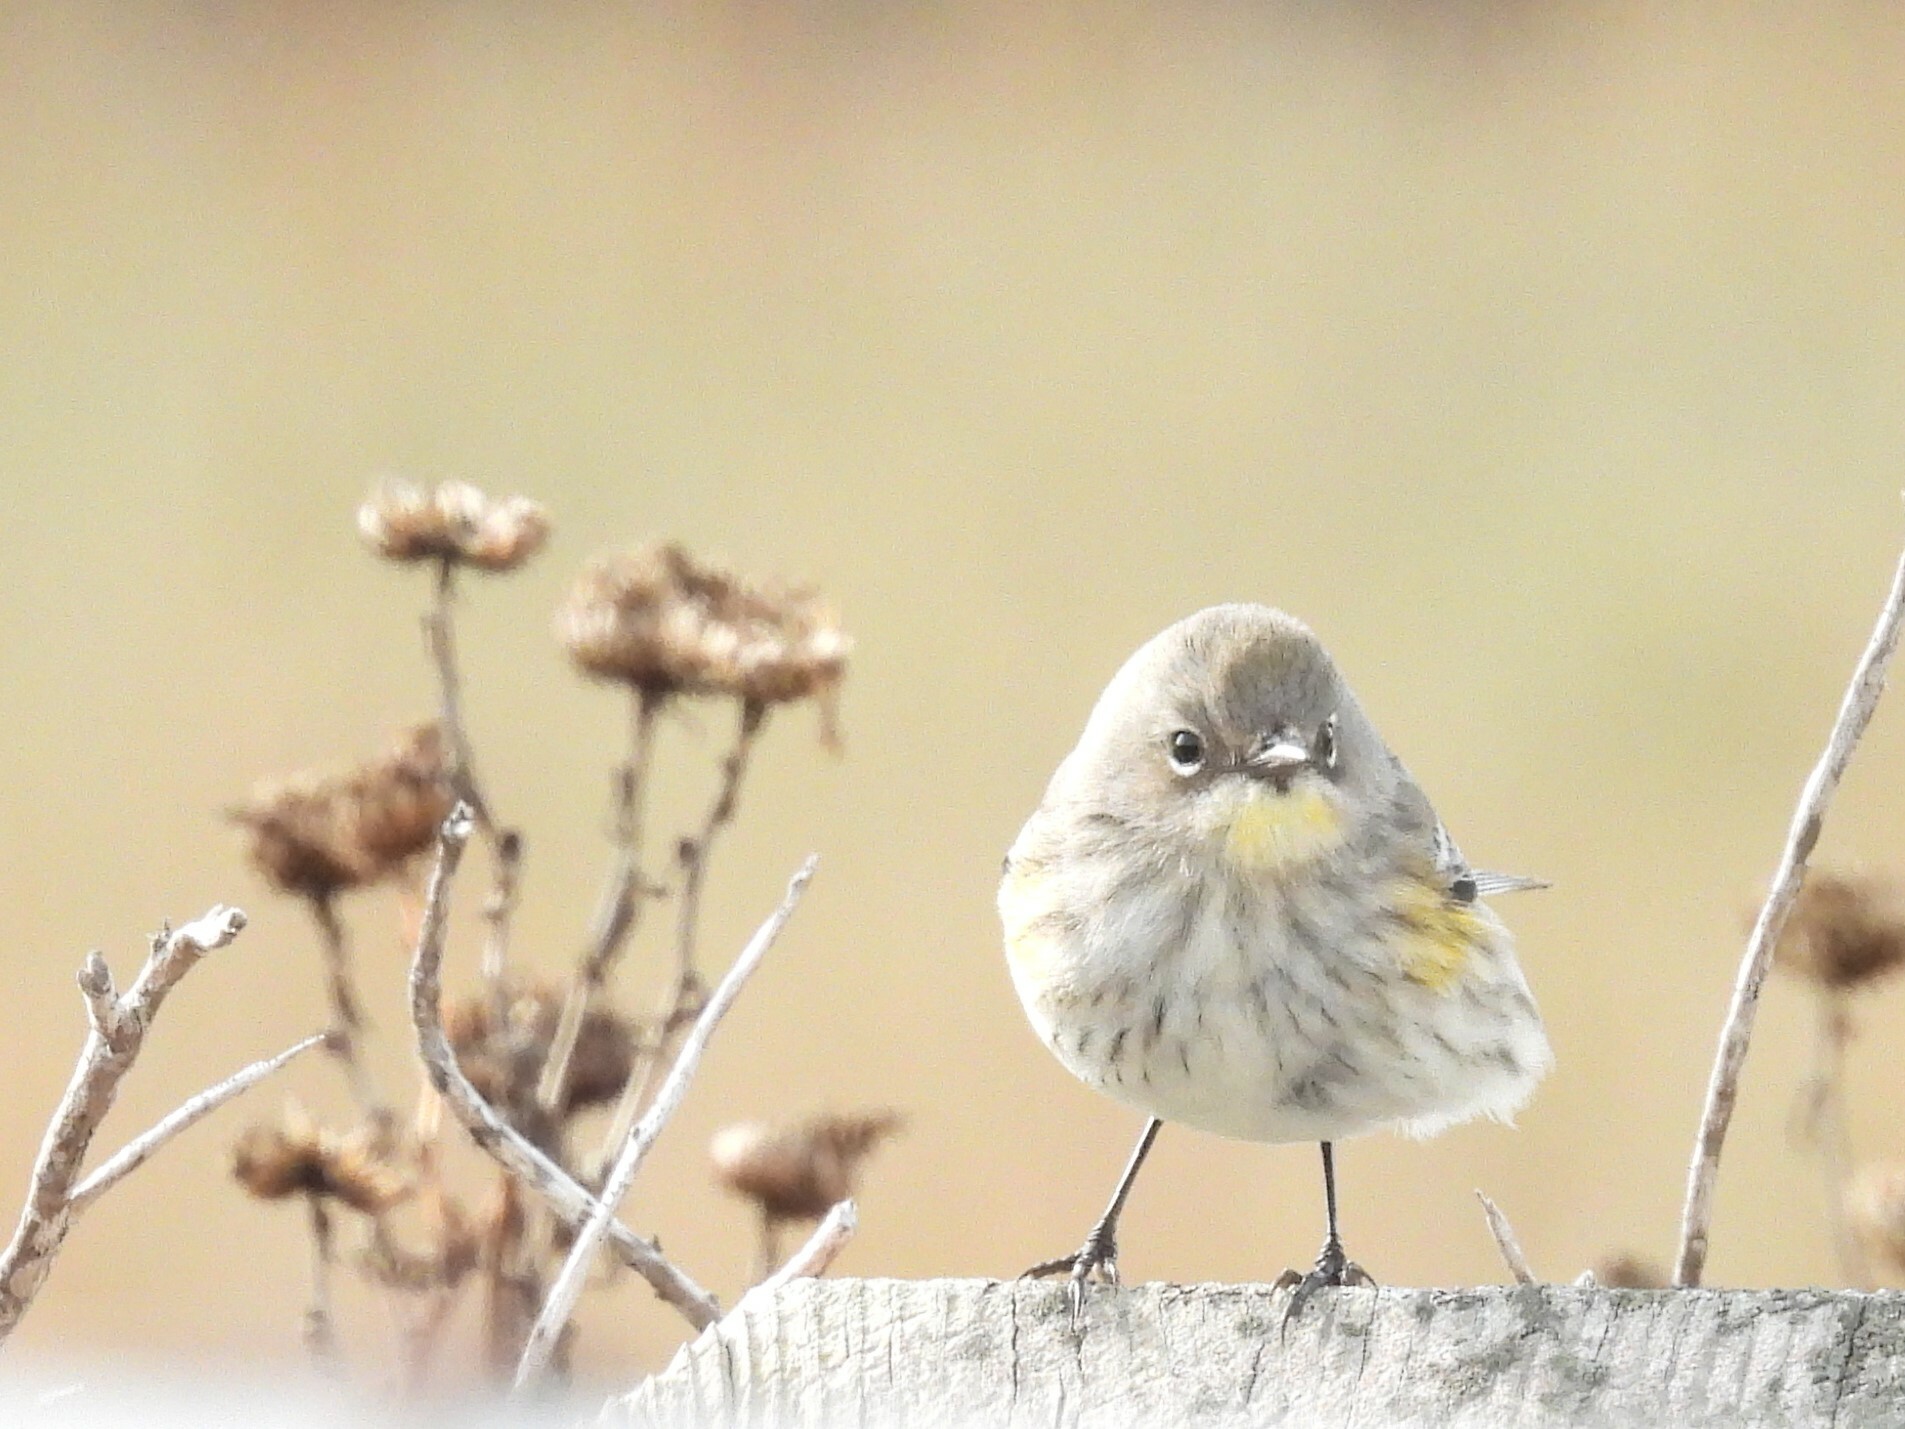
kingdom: Animalia
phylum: Chordata
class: Aves
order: Passeriformes
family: Parulidae
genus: Setophaga
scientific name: Setophaga coronata
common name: Myrtle warbler
